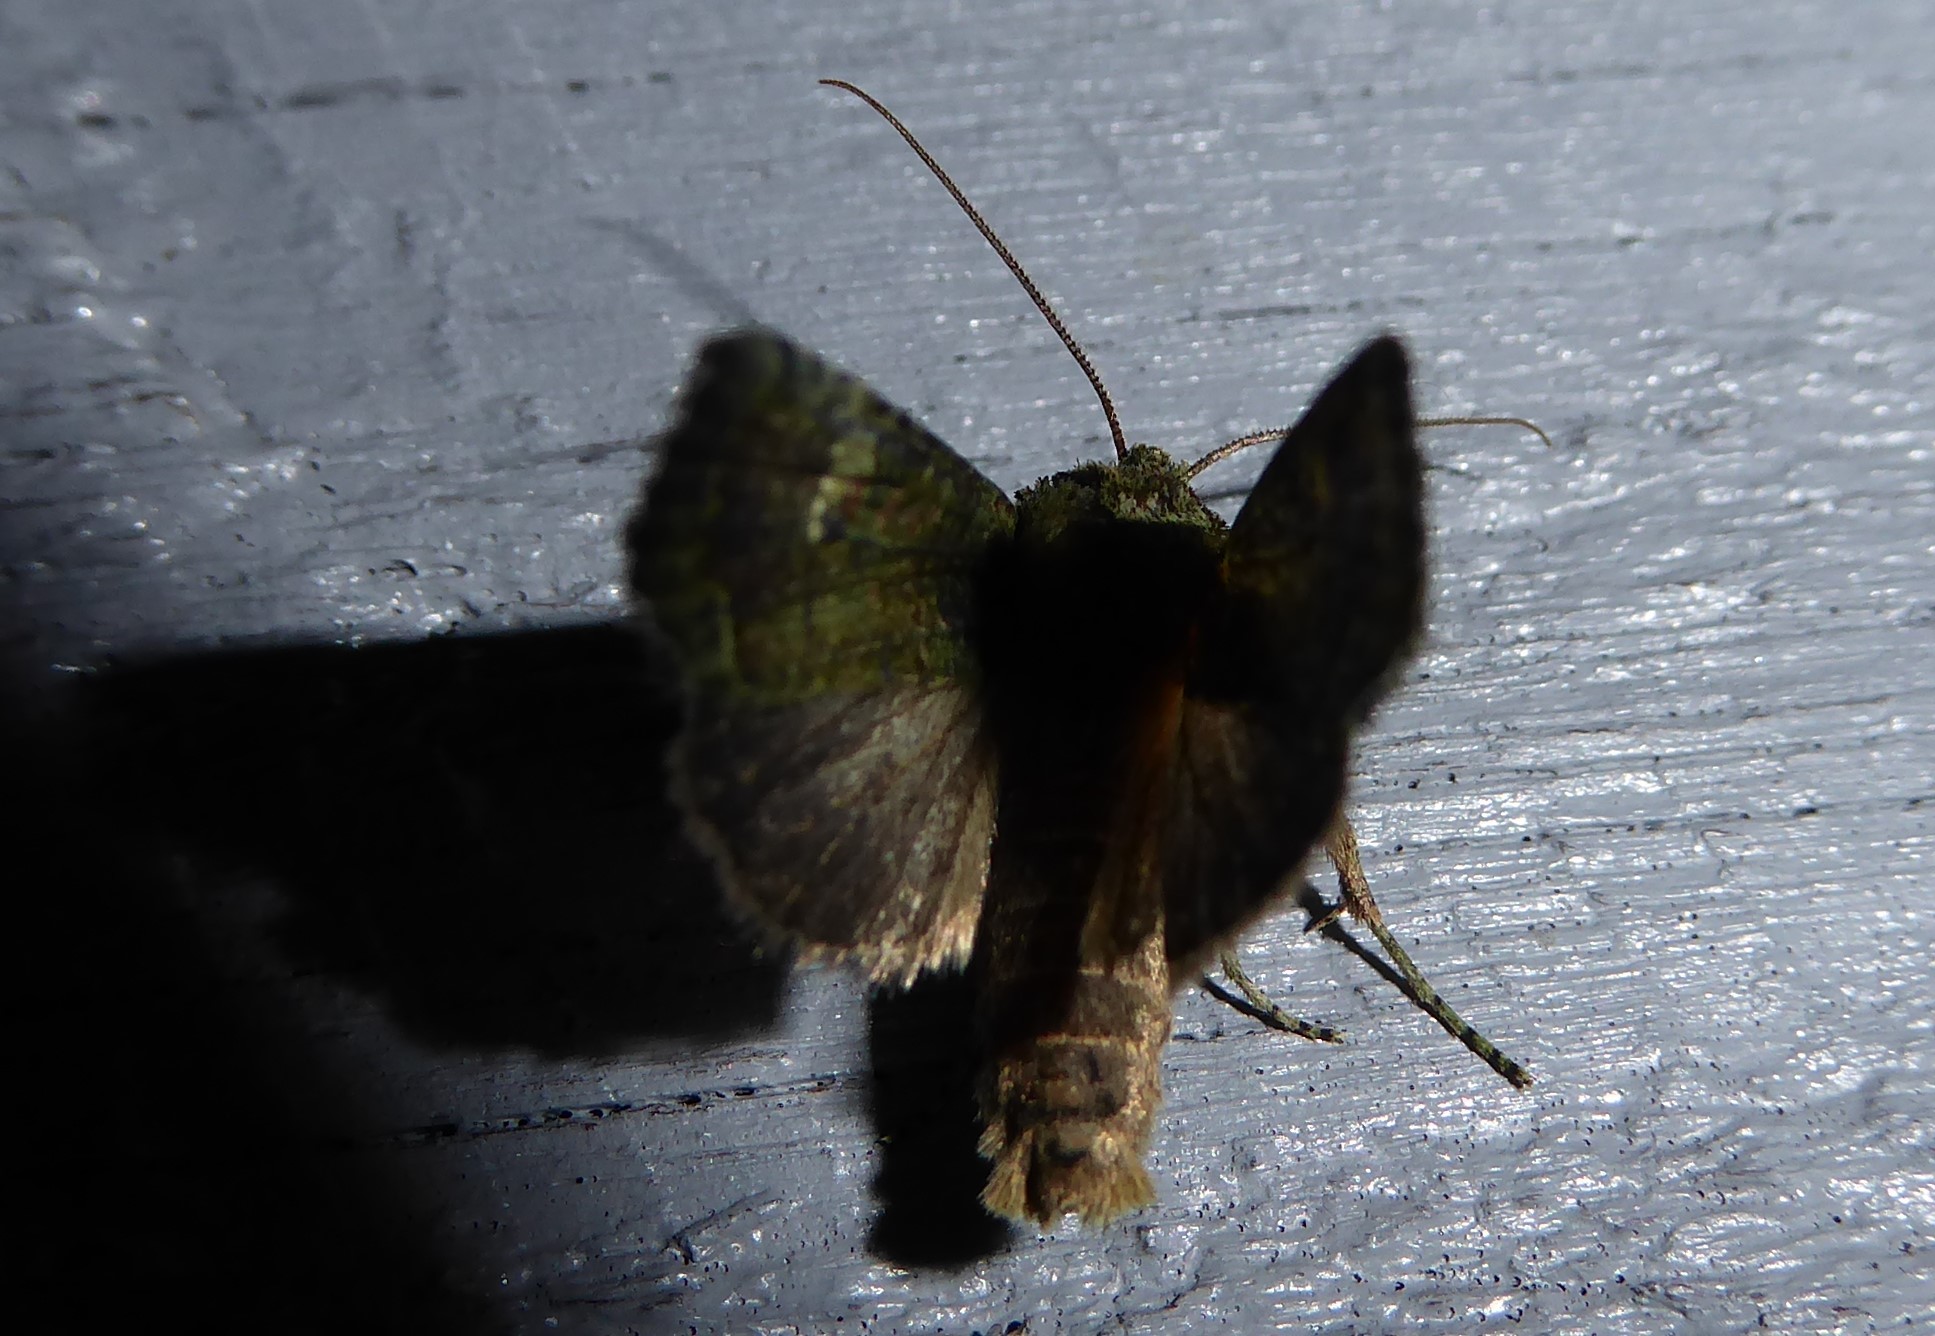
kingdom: Animalia
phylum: Arthropoda
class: Insecta
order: Lepidoptera
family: Noctuidae
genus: Meterana
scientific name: Meterana levis
